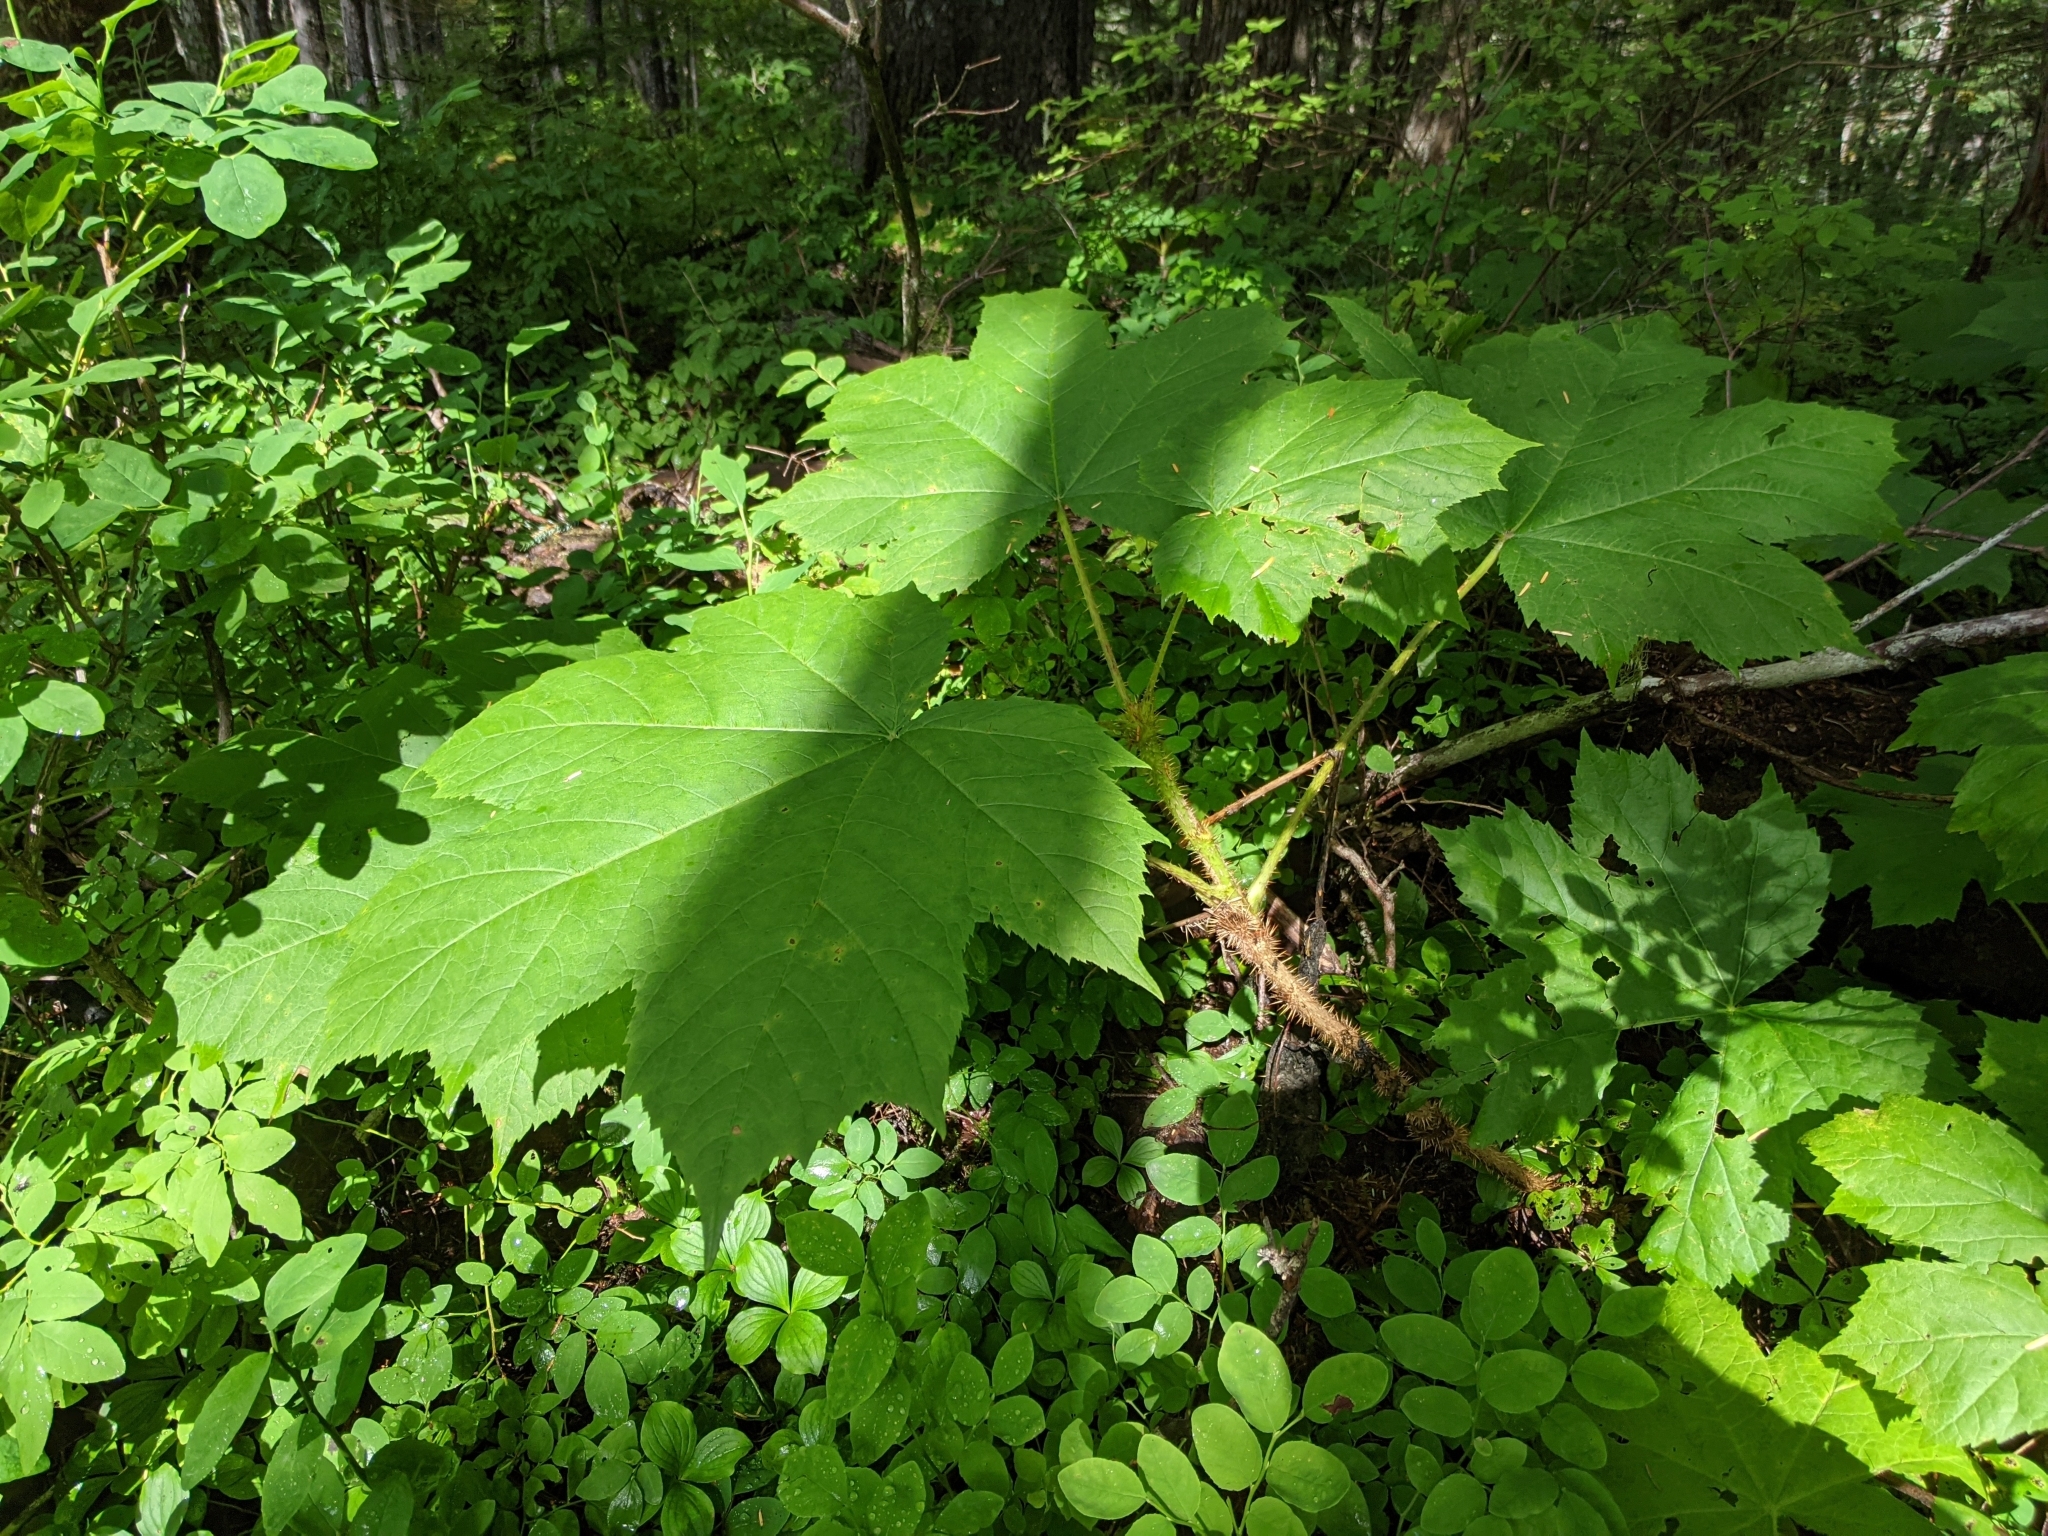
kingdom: Plantae
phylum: Tracheophyta
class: Magnoliopsida
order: Apiales
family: Araliaceae
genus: Oplopanax
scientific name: Oplopanax horridus
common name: Devil's walking-stick
